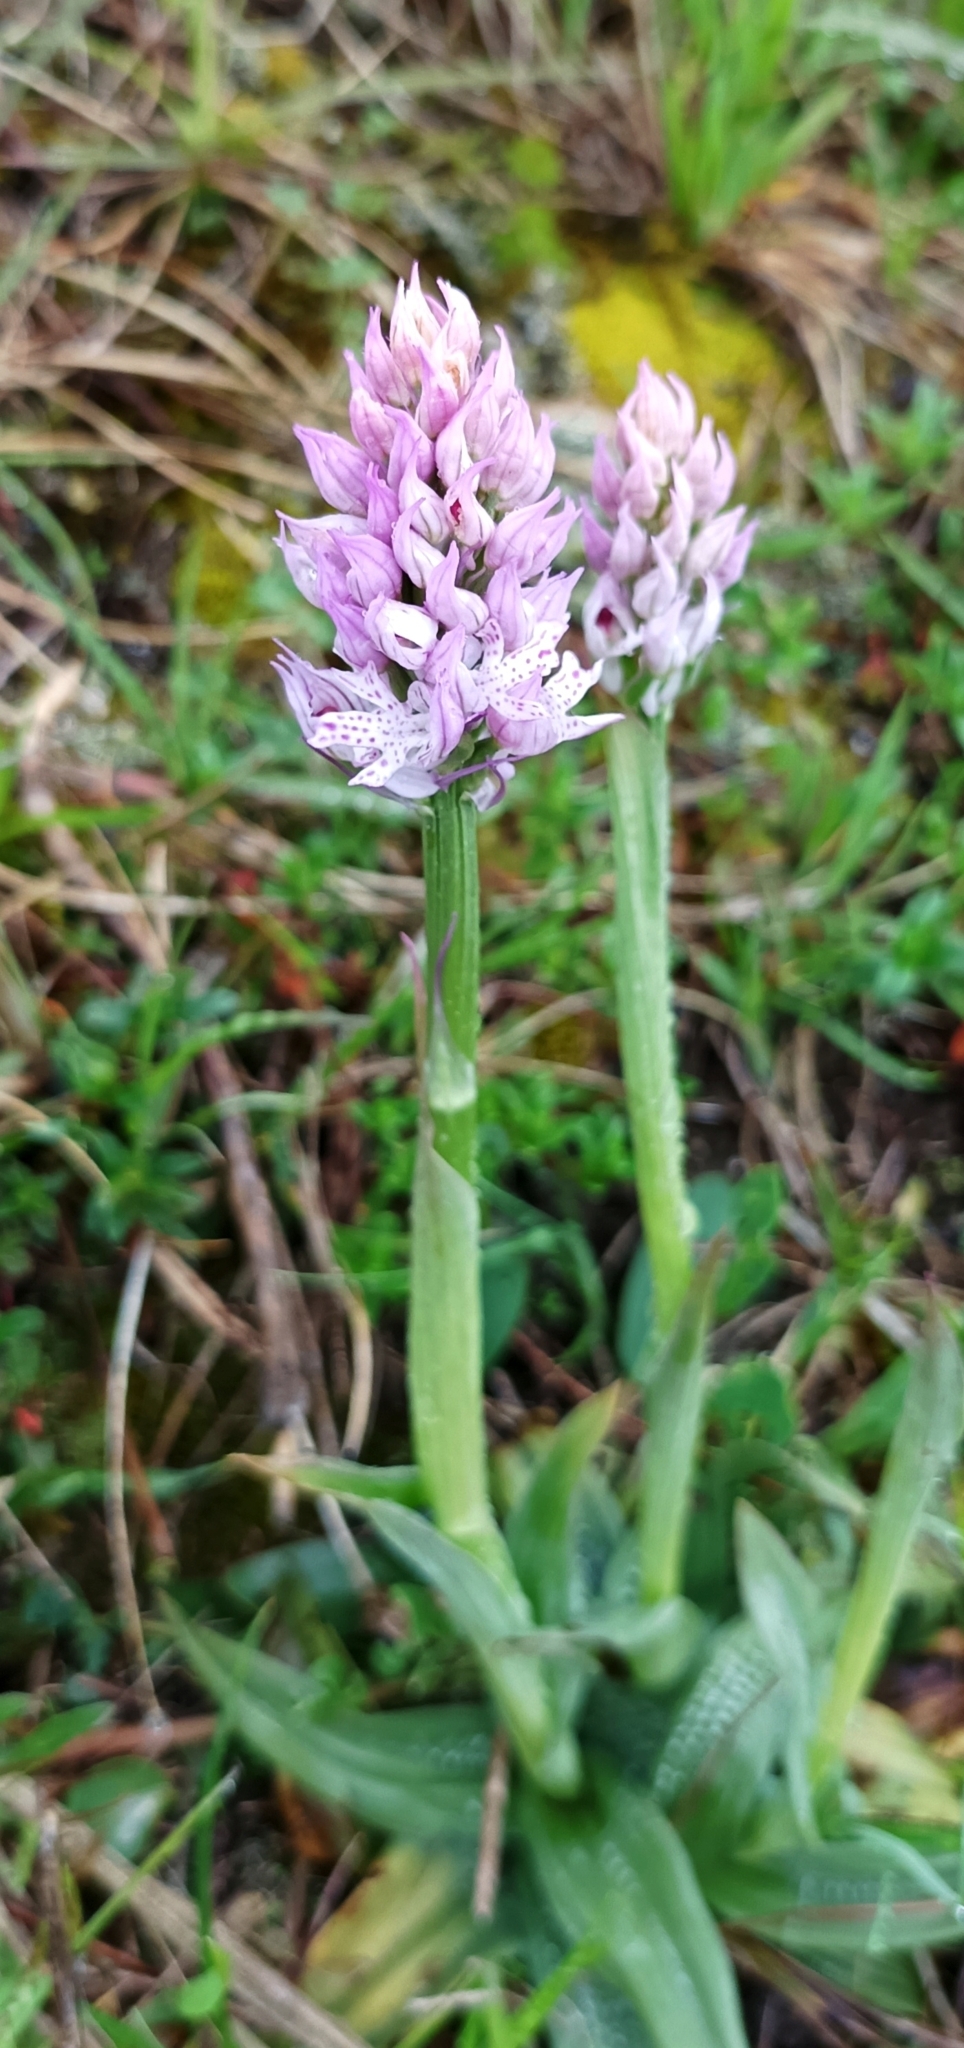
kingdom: Plantae
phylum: Tracheophyta
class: Liliopsida
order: Asparagales
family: Orchidaceae
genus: Neotinea
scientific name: Neotinea tridentata
